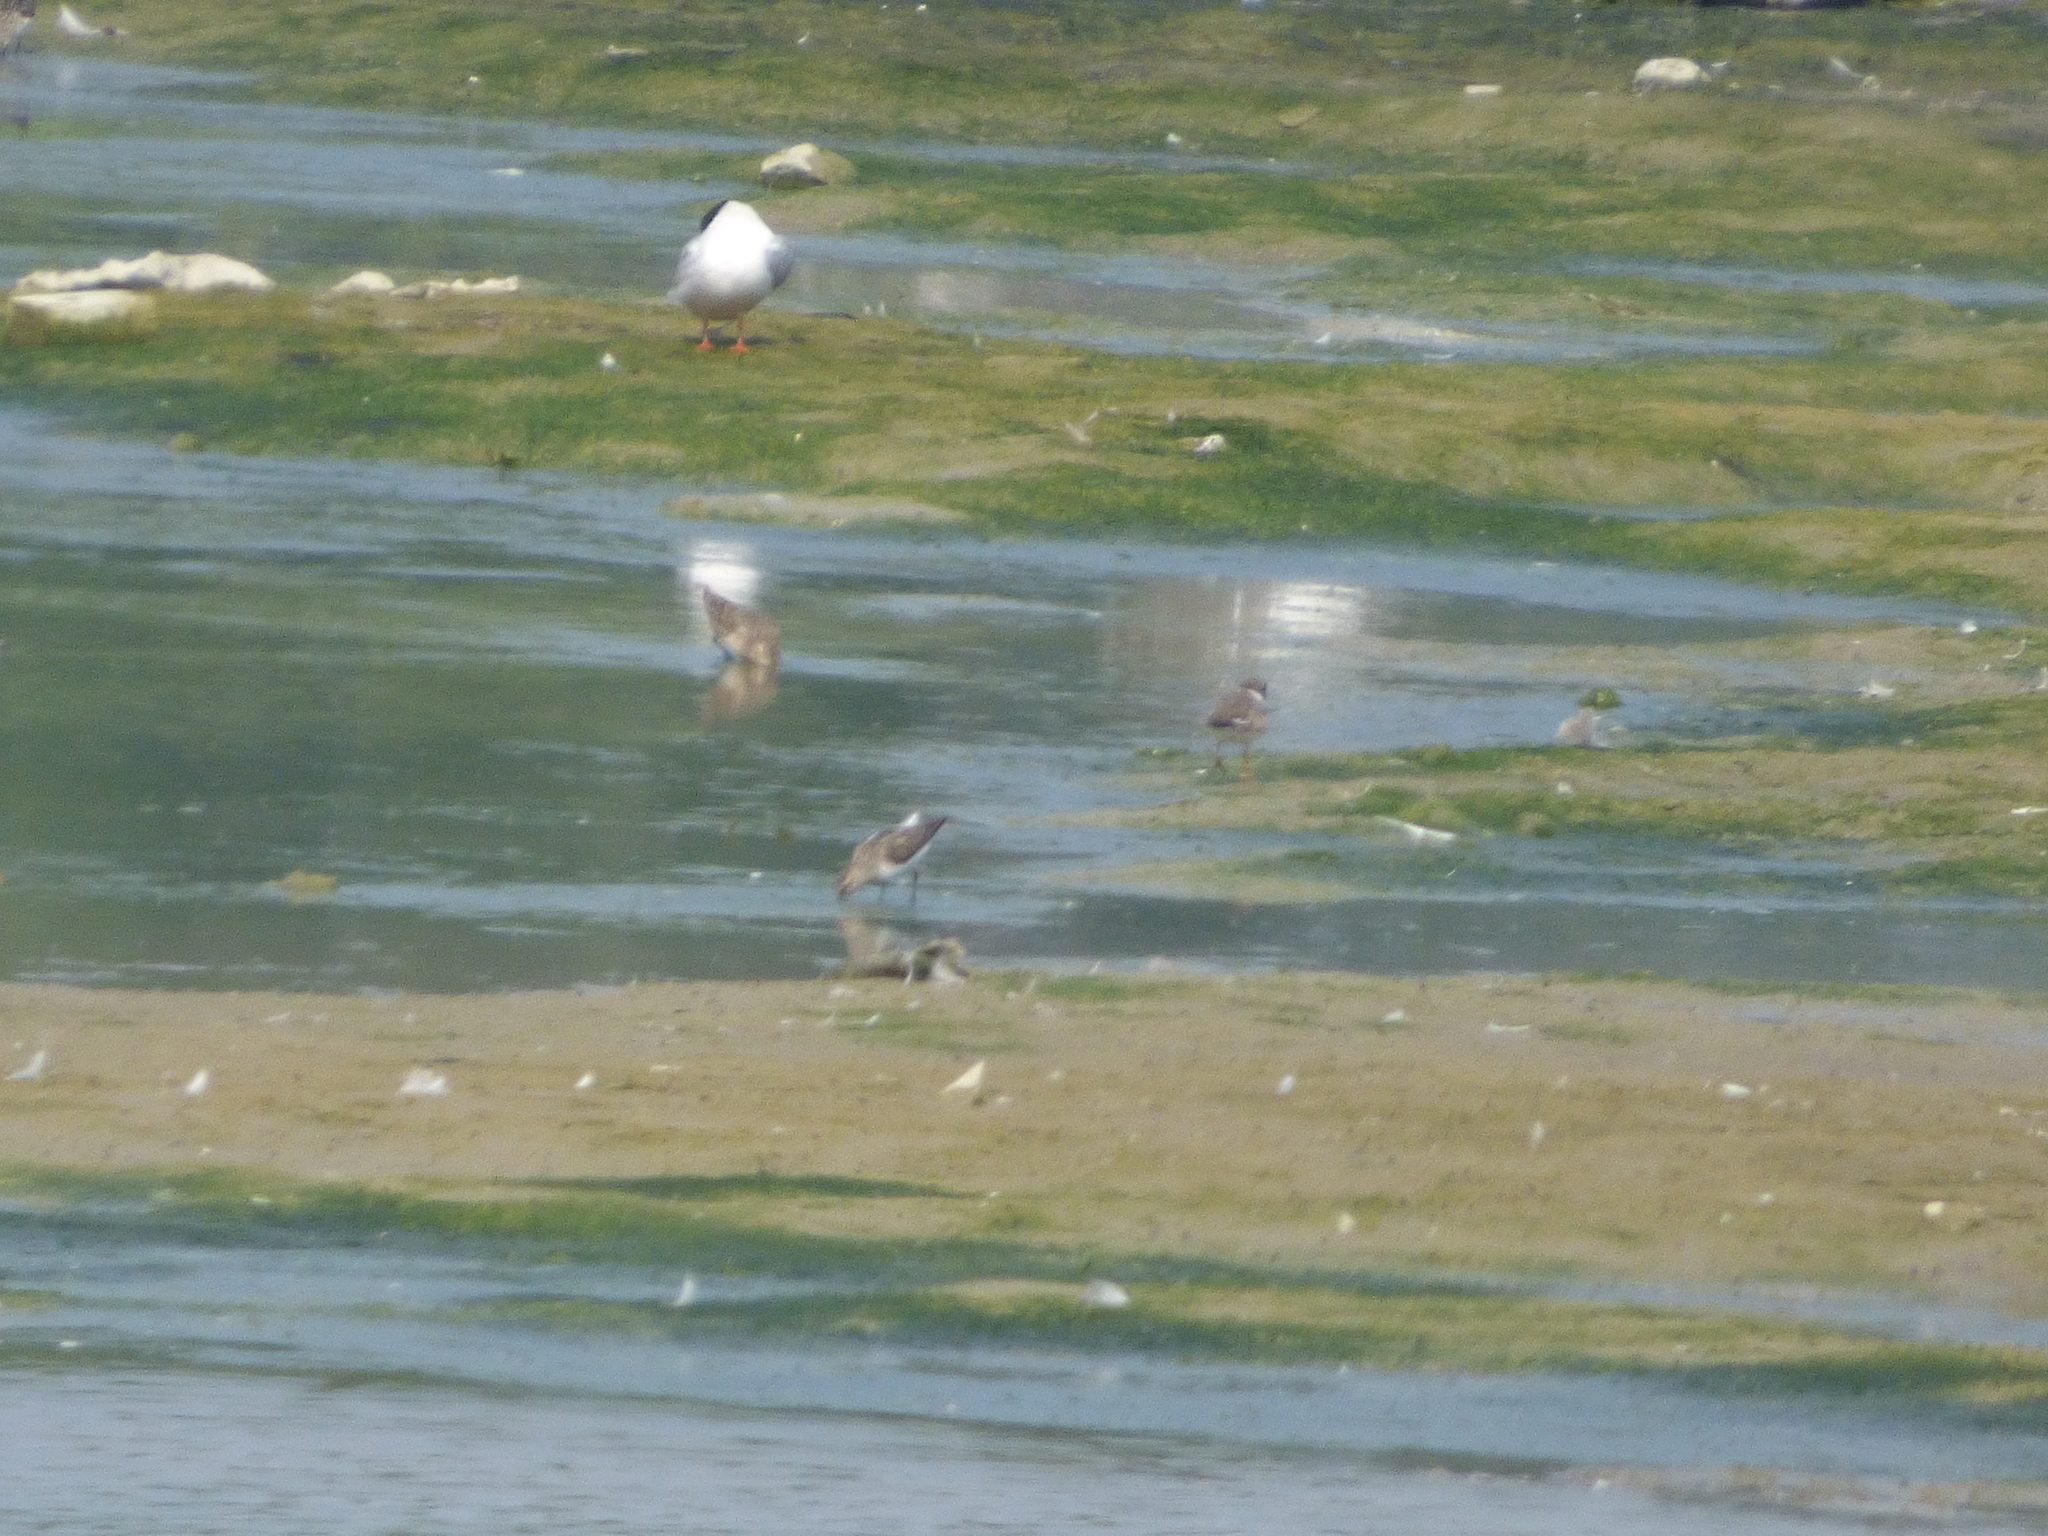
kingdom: Animalia
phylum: Chordata
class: Aves
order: Charadriiformes
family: Laridae
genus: Sterna
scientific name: Sterna hirundo
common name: Common tern
